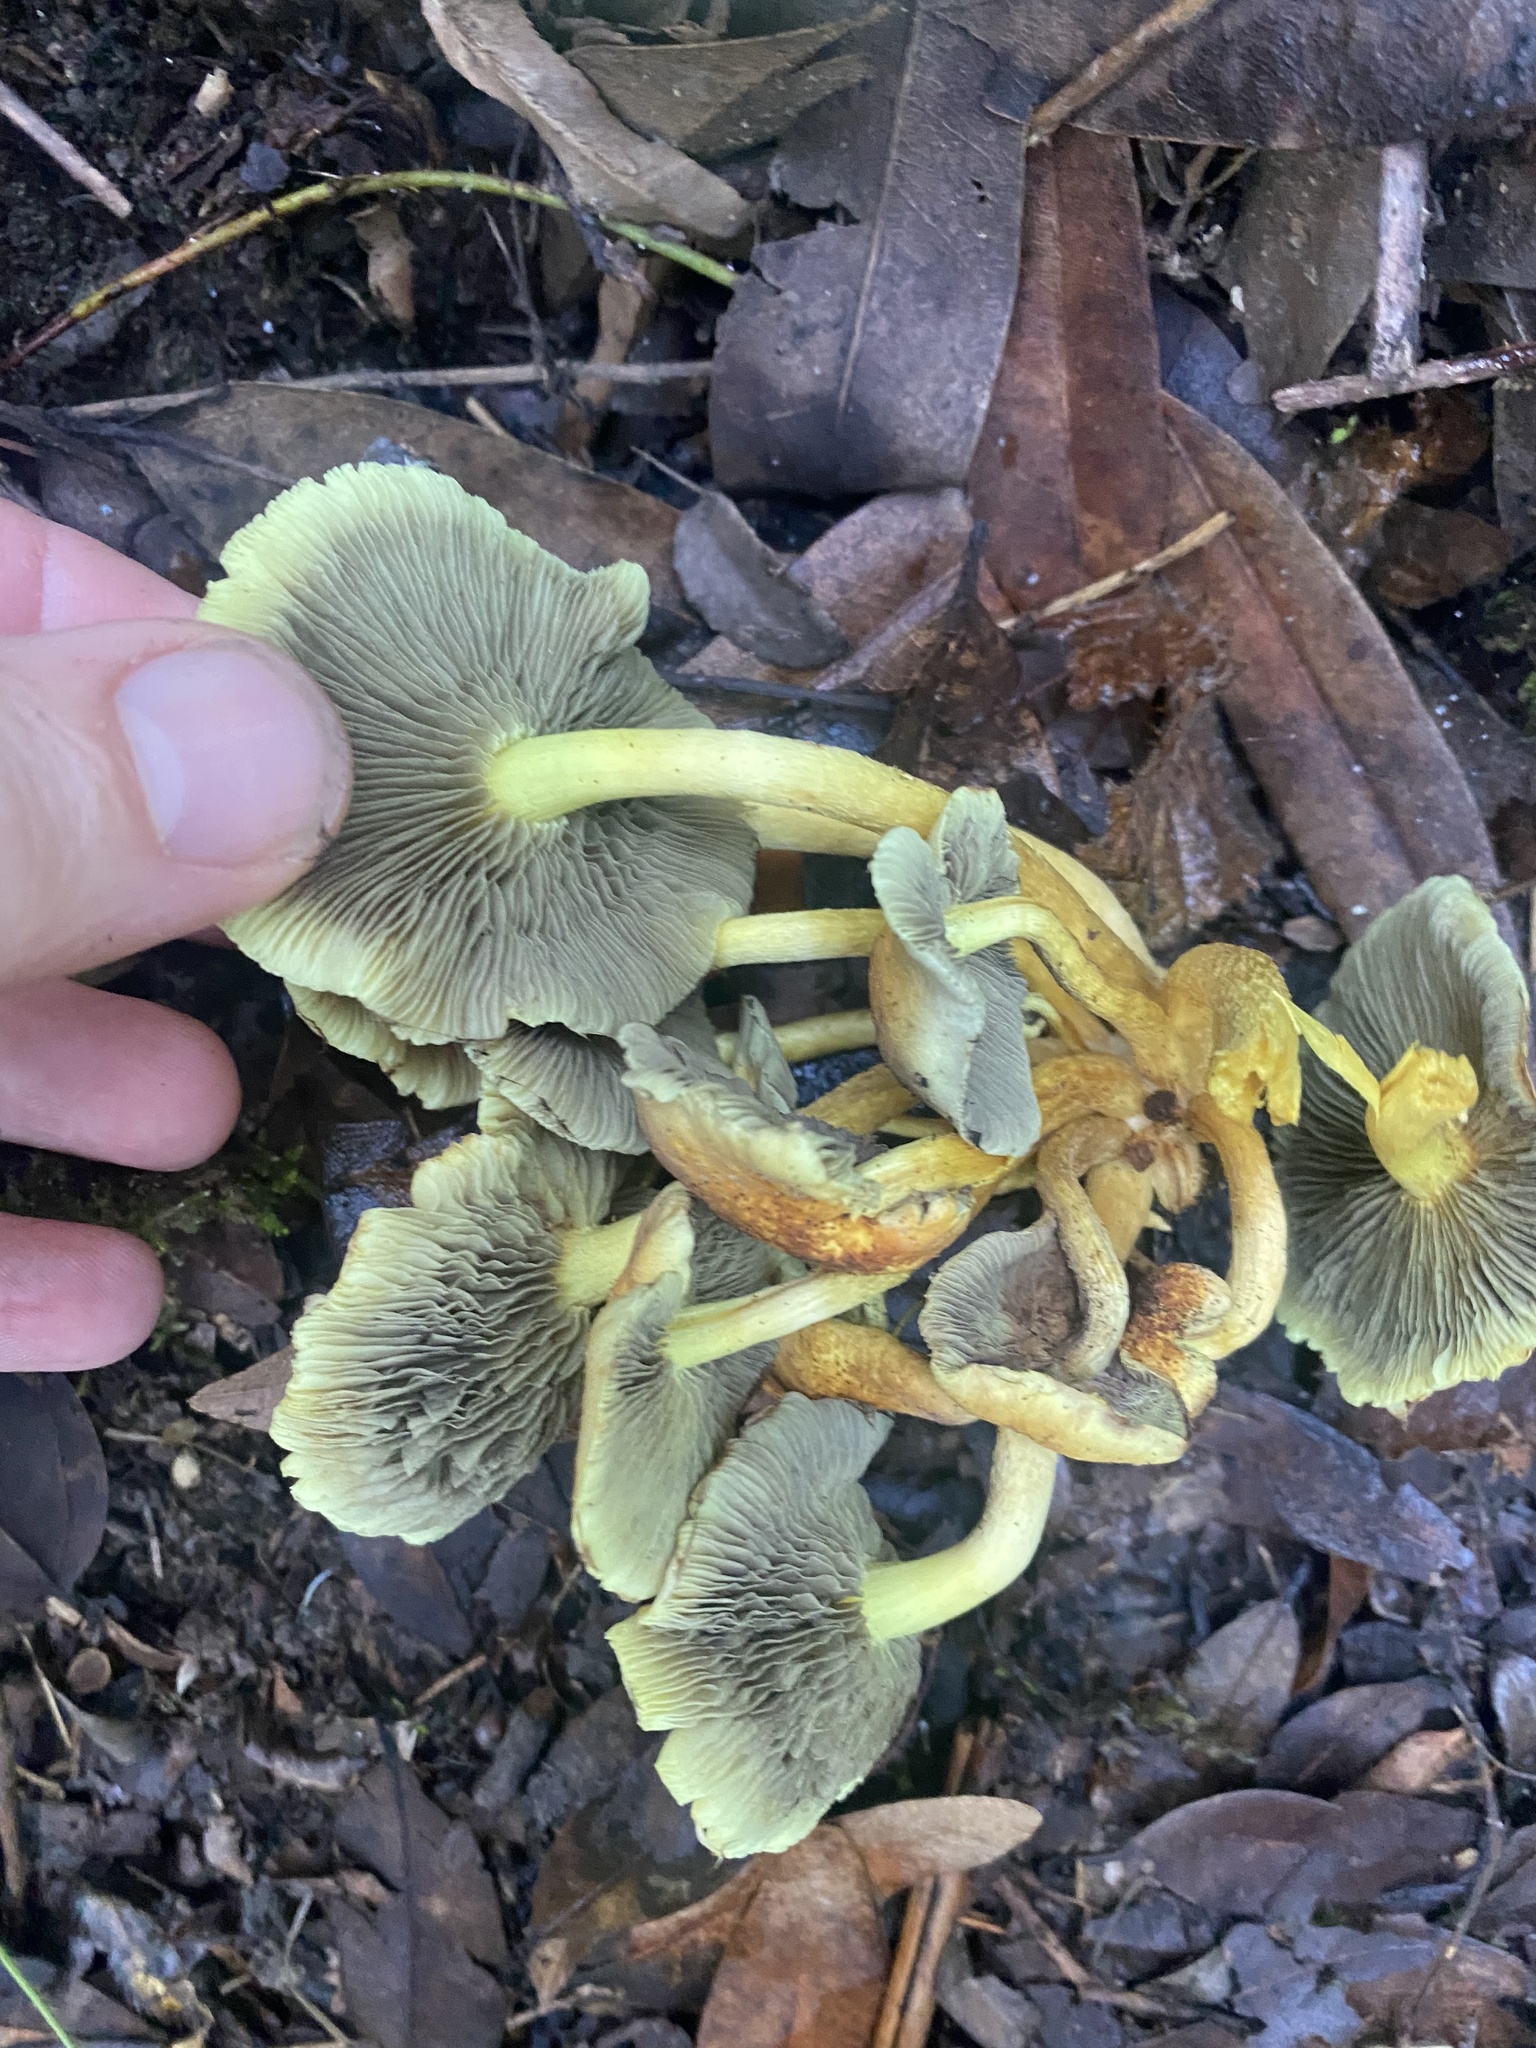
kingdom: Fungi
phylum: Basidiomycota
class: Agaricomycetes
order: Agaricales
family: Strophariaceae
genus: Hypholoma
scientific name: Hypholoma fasciculare
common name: Sulphur tuft
